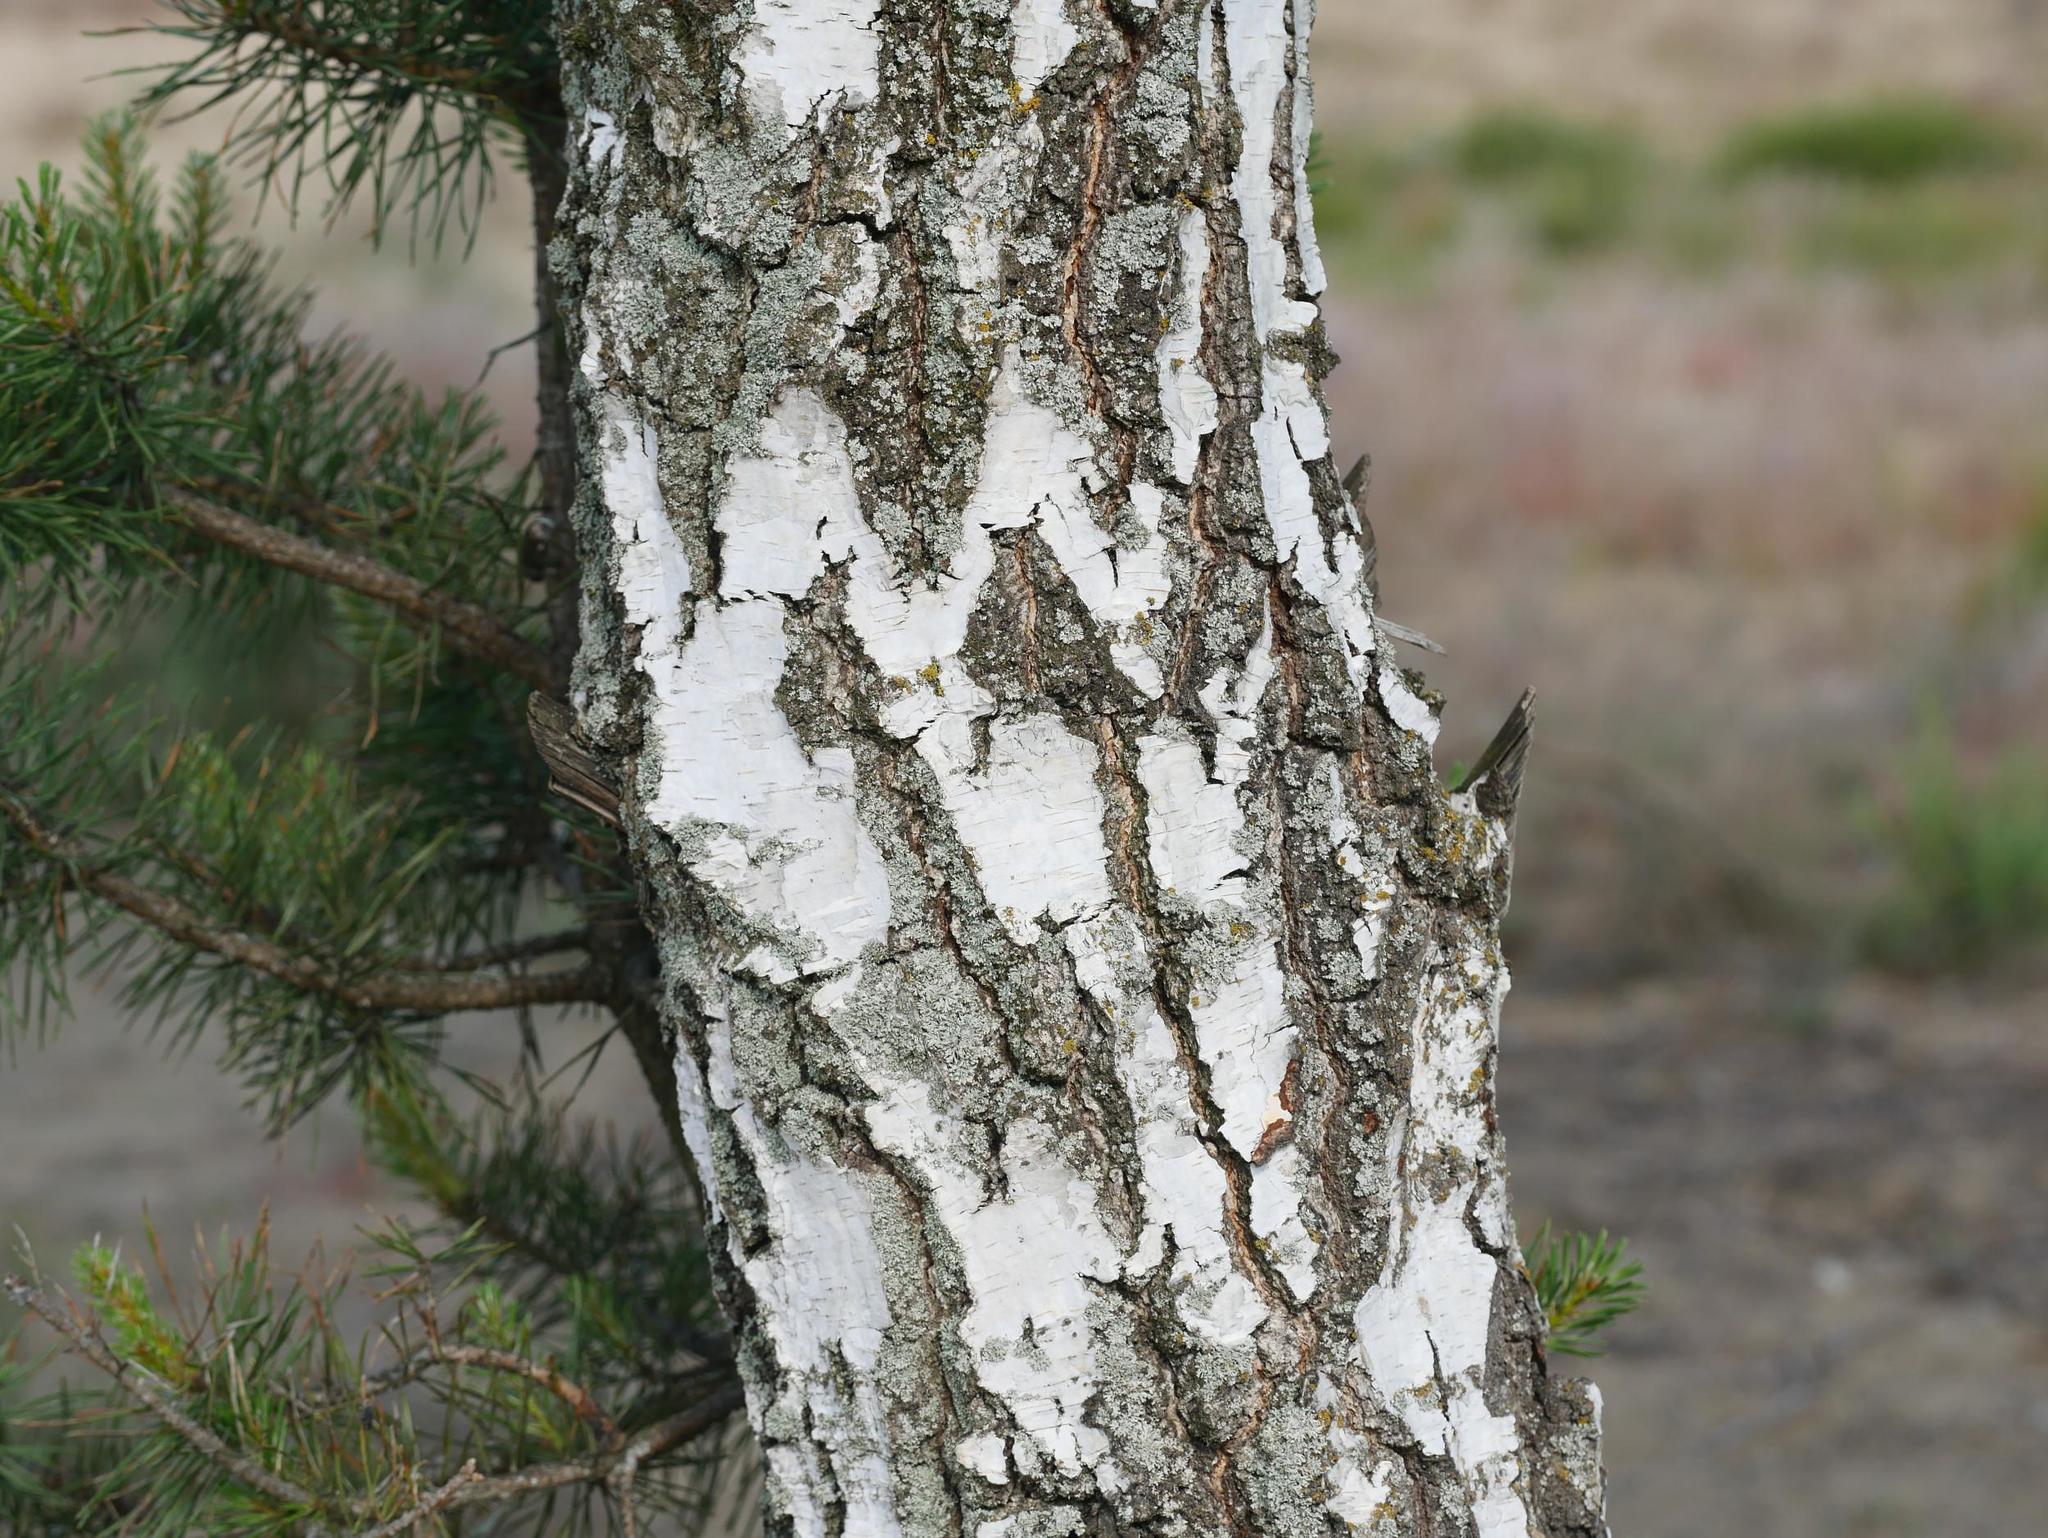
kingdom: Plantae
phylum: Tracheophyta
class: Magnoliopsida
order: Fagales
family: Betulaceae
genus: Betula
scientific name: Betula pendula
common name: Silver birch
